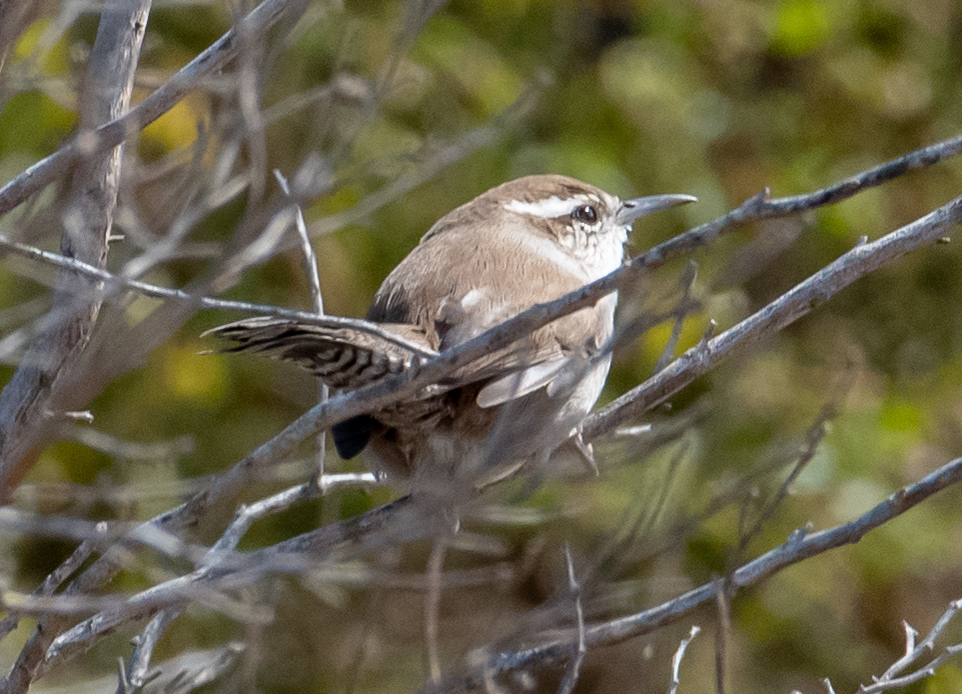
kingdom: Animalia
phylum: Chordata
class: Aves
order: Passeriformes
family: Troglodytidae
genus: Thryomanes
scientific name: Thryomanes bewickii
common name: Bewick's wren
